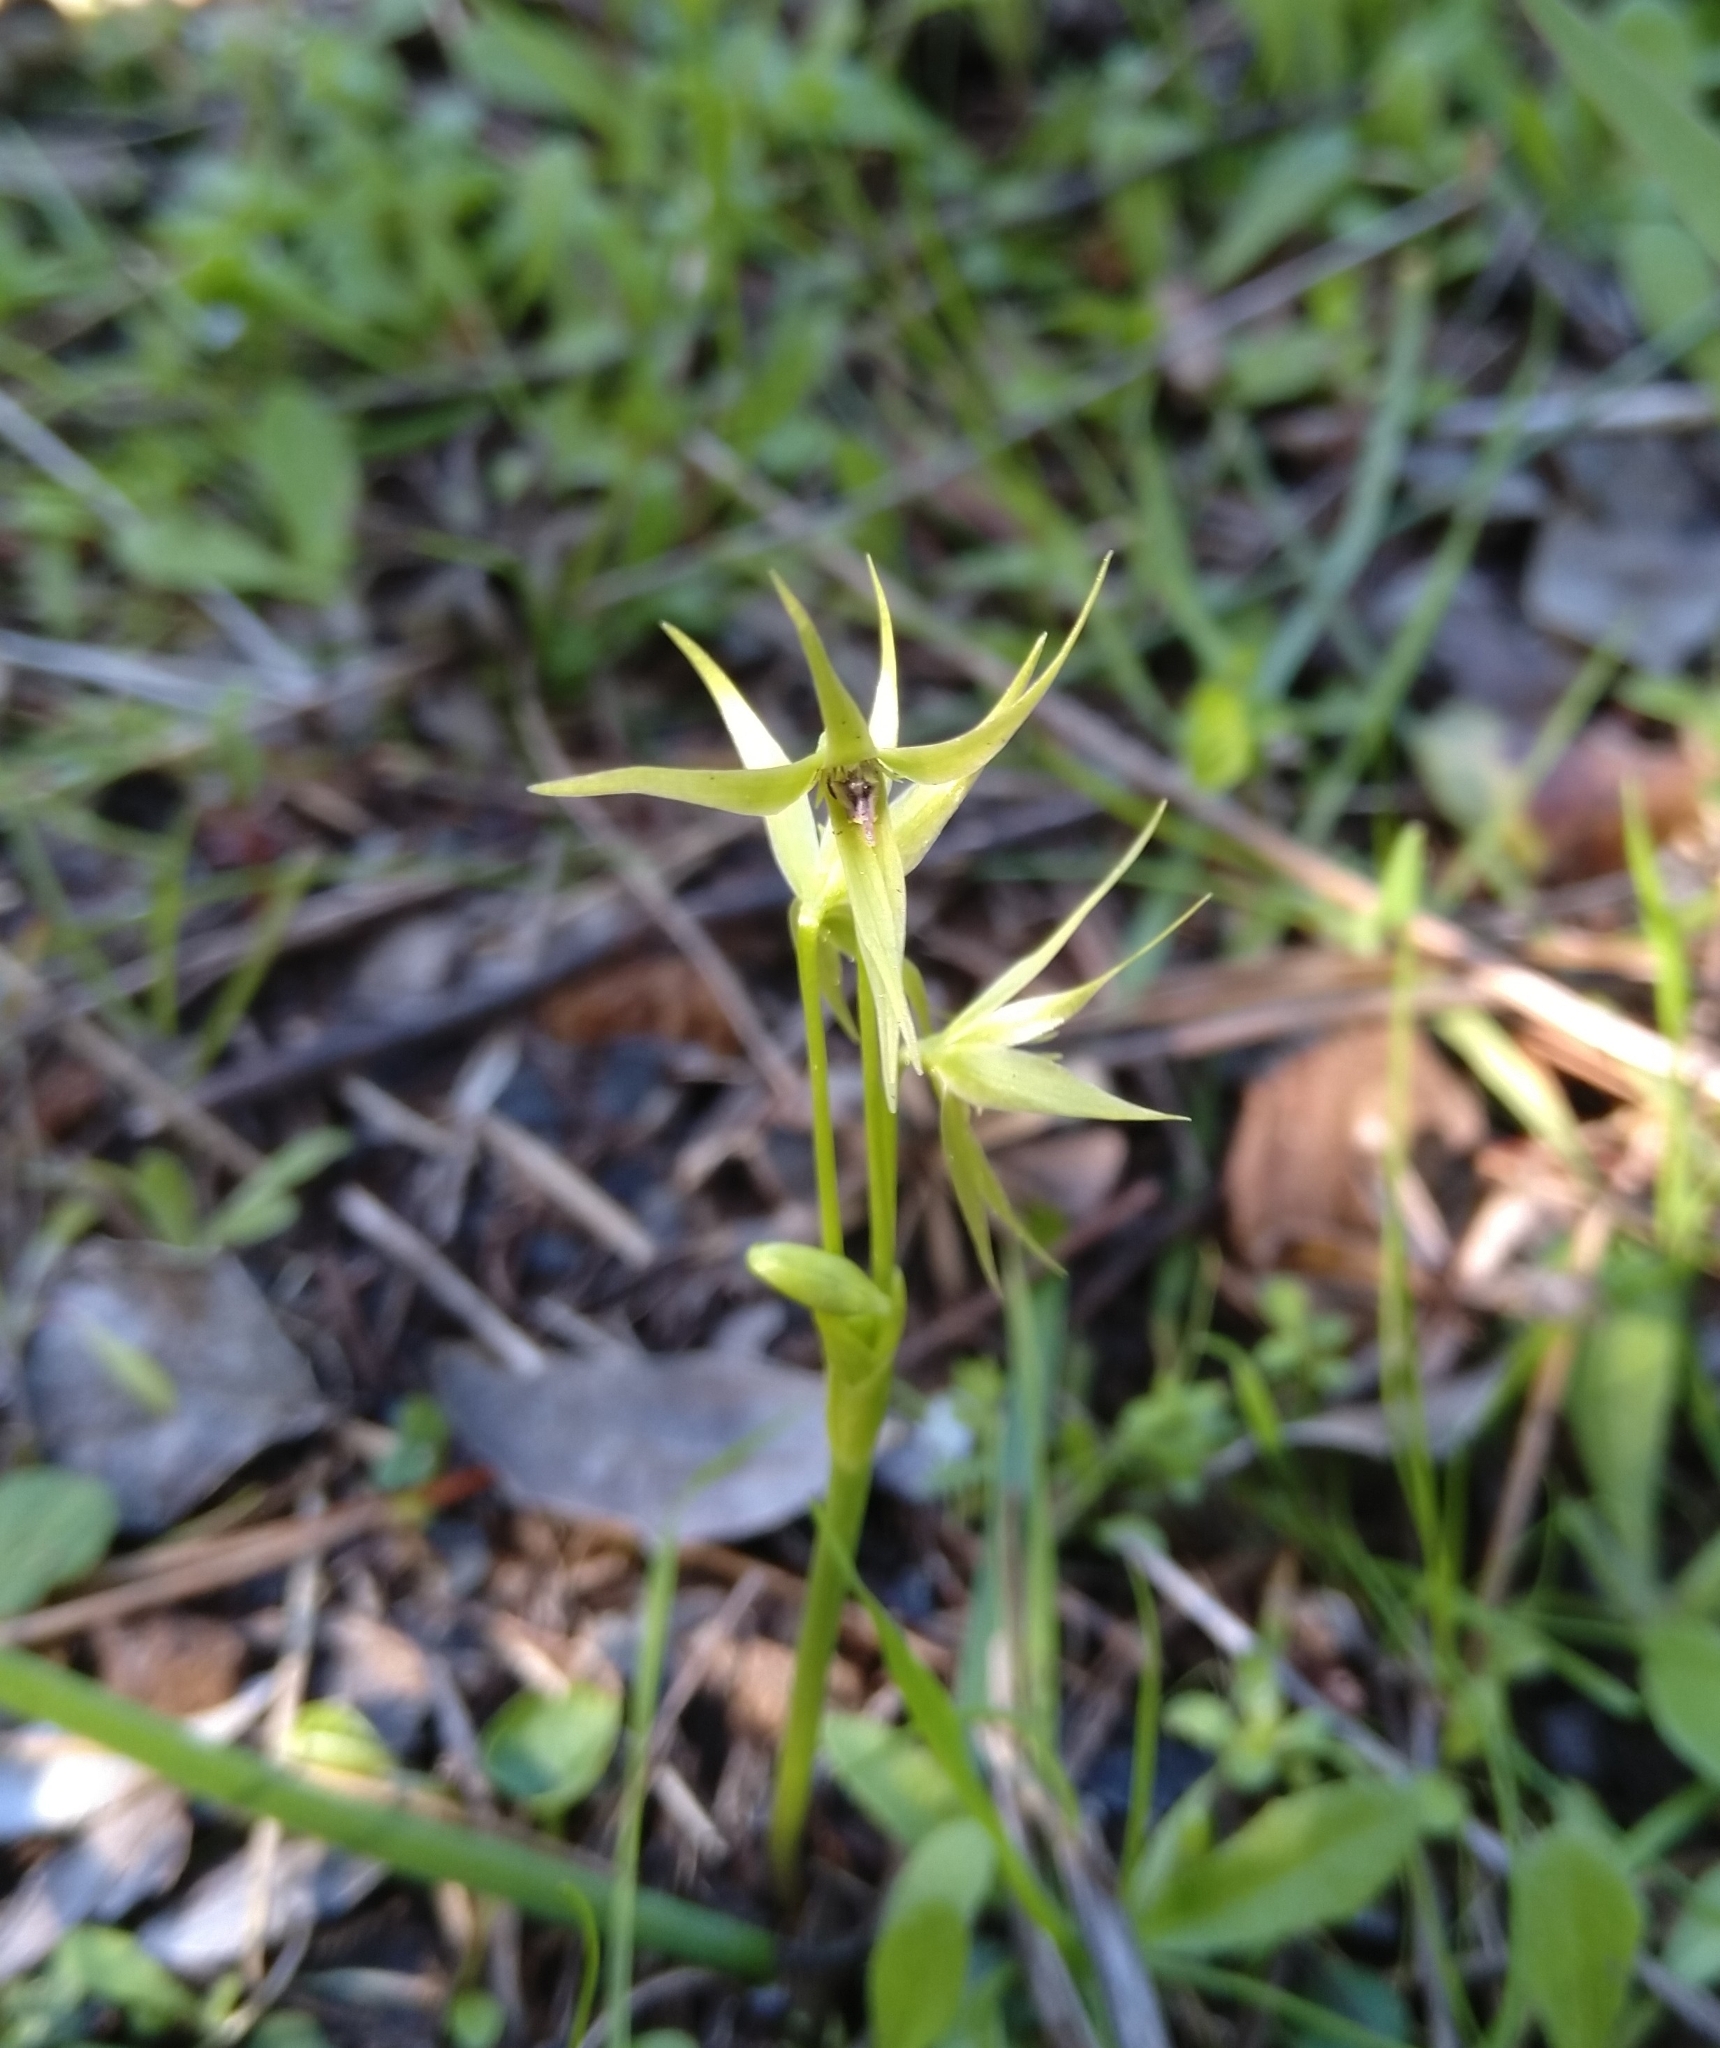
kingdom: Plantae
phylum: Tracheophyta
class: Liliopsida
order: Asparagales
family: Amaryllidaceae
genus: Miersia
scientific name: Miersia chilensis
